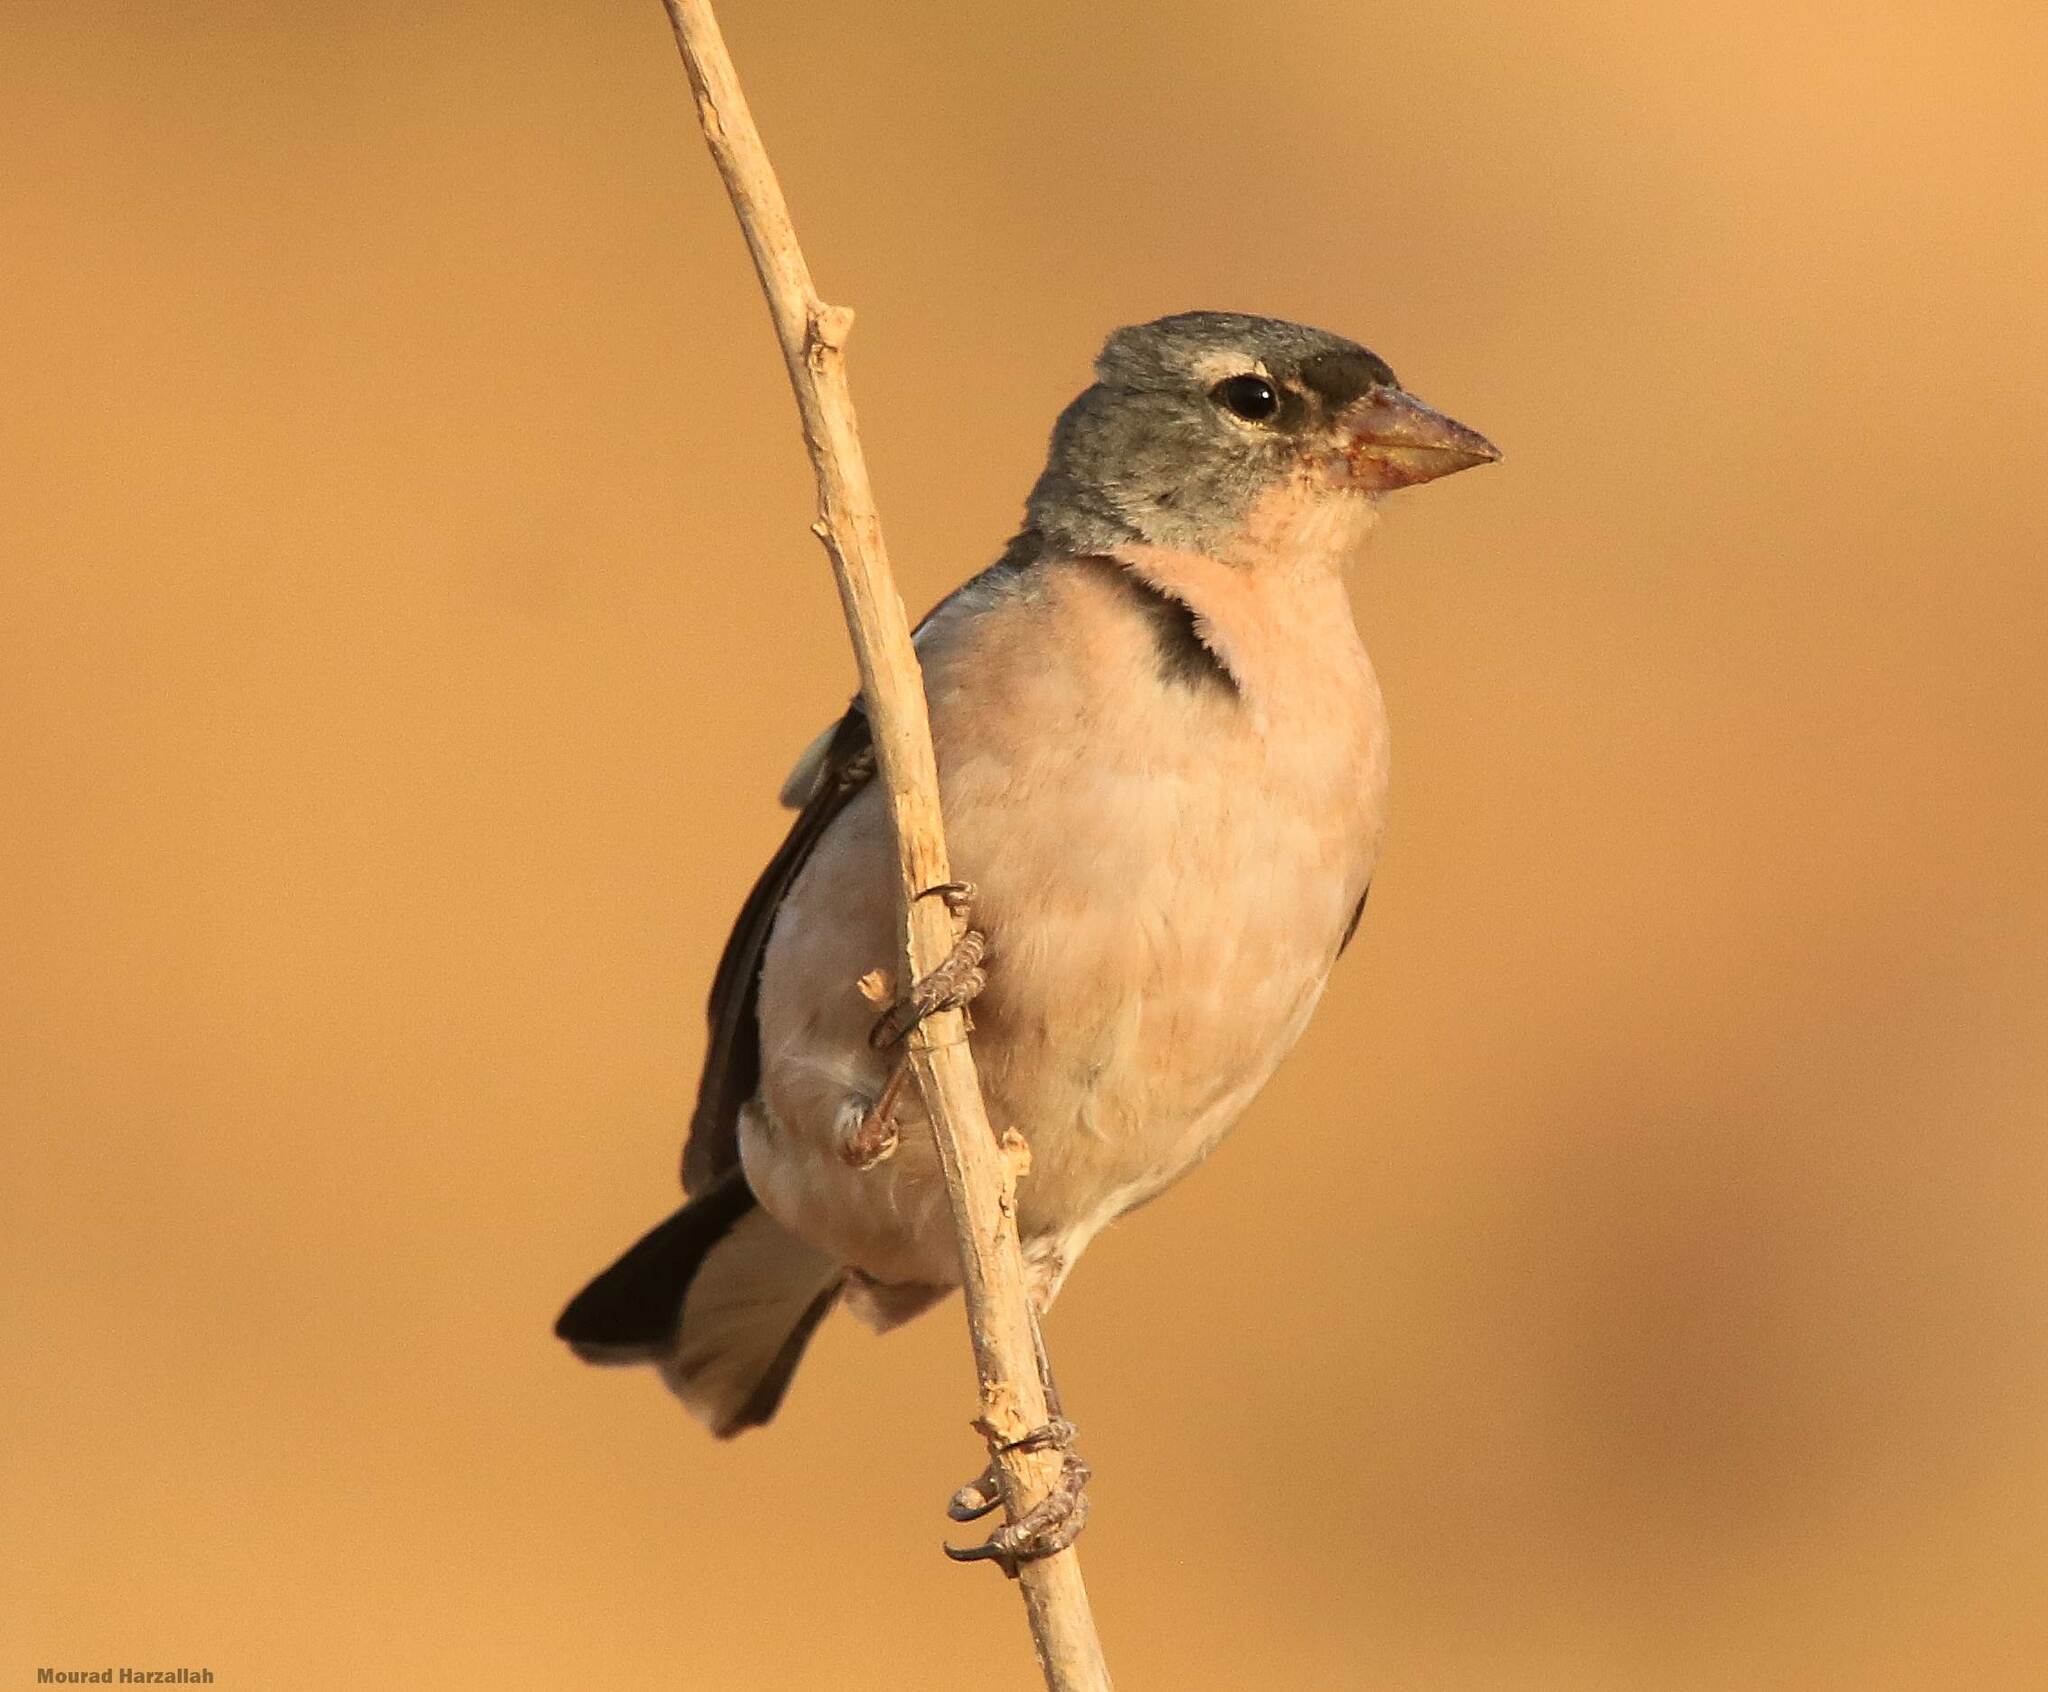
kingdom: Animalia
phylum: Chordata
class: Aves
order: Passeriformes
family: Fringillidae
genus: Fringilla
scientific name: Fringilla spodiogenys
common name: African chaffinch
